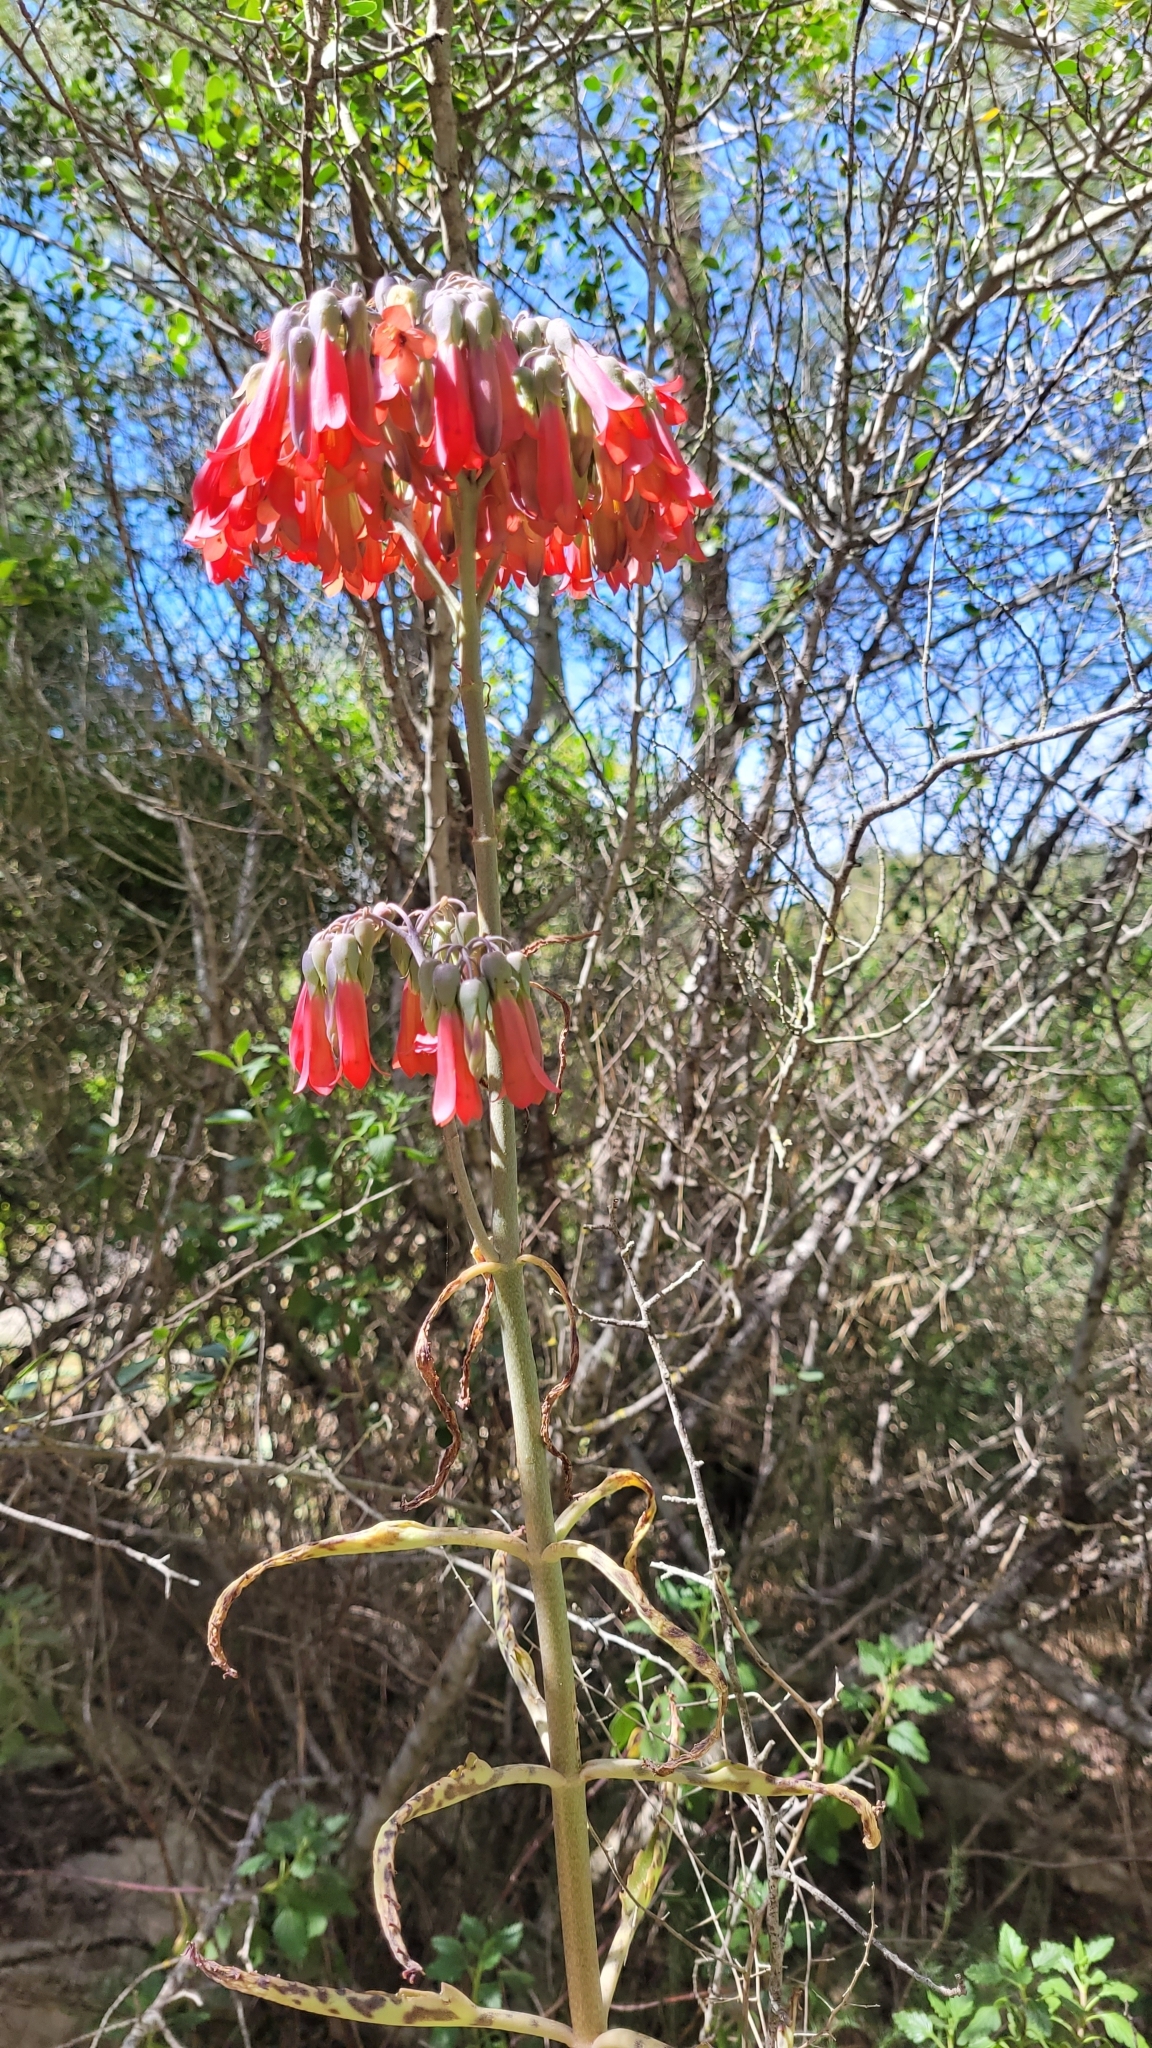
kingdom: Plantae
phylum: Tracheophyta
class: Magnoliopsida
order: Saxifragales
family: Crassulaceae
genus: Kalanchoe
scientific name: Kalanchoe houghtonii
